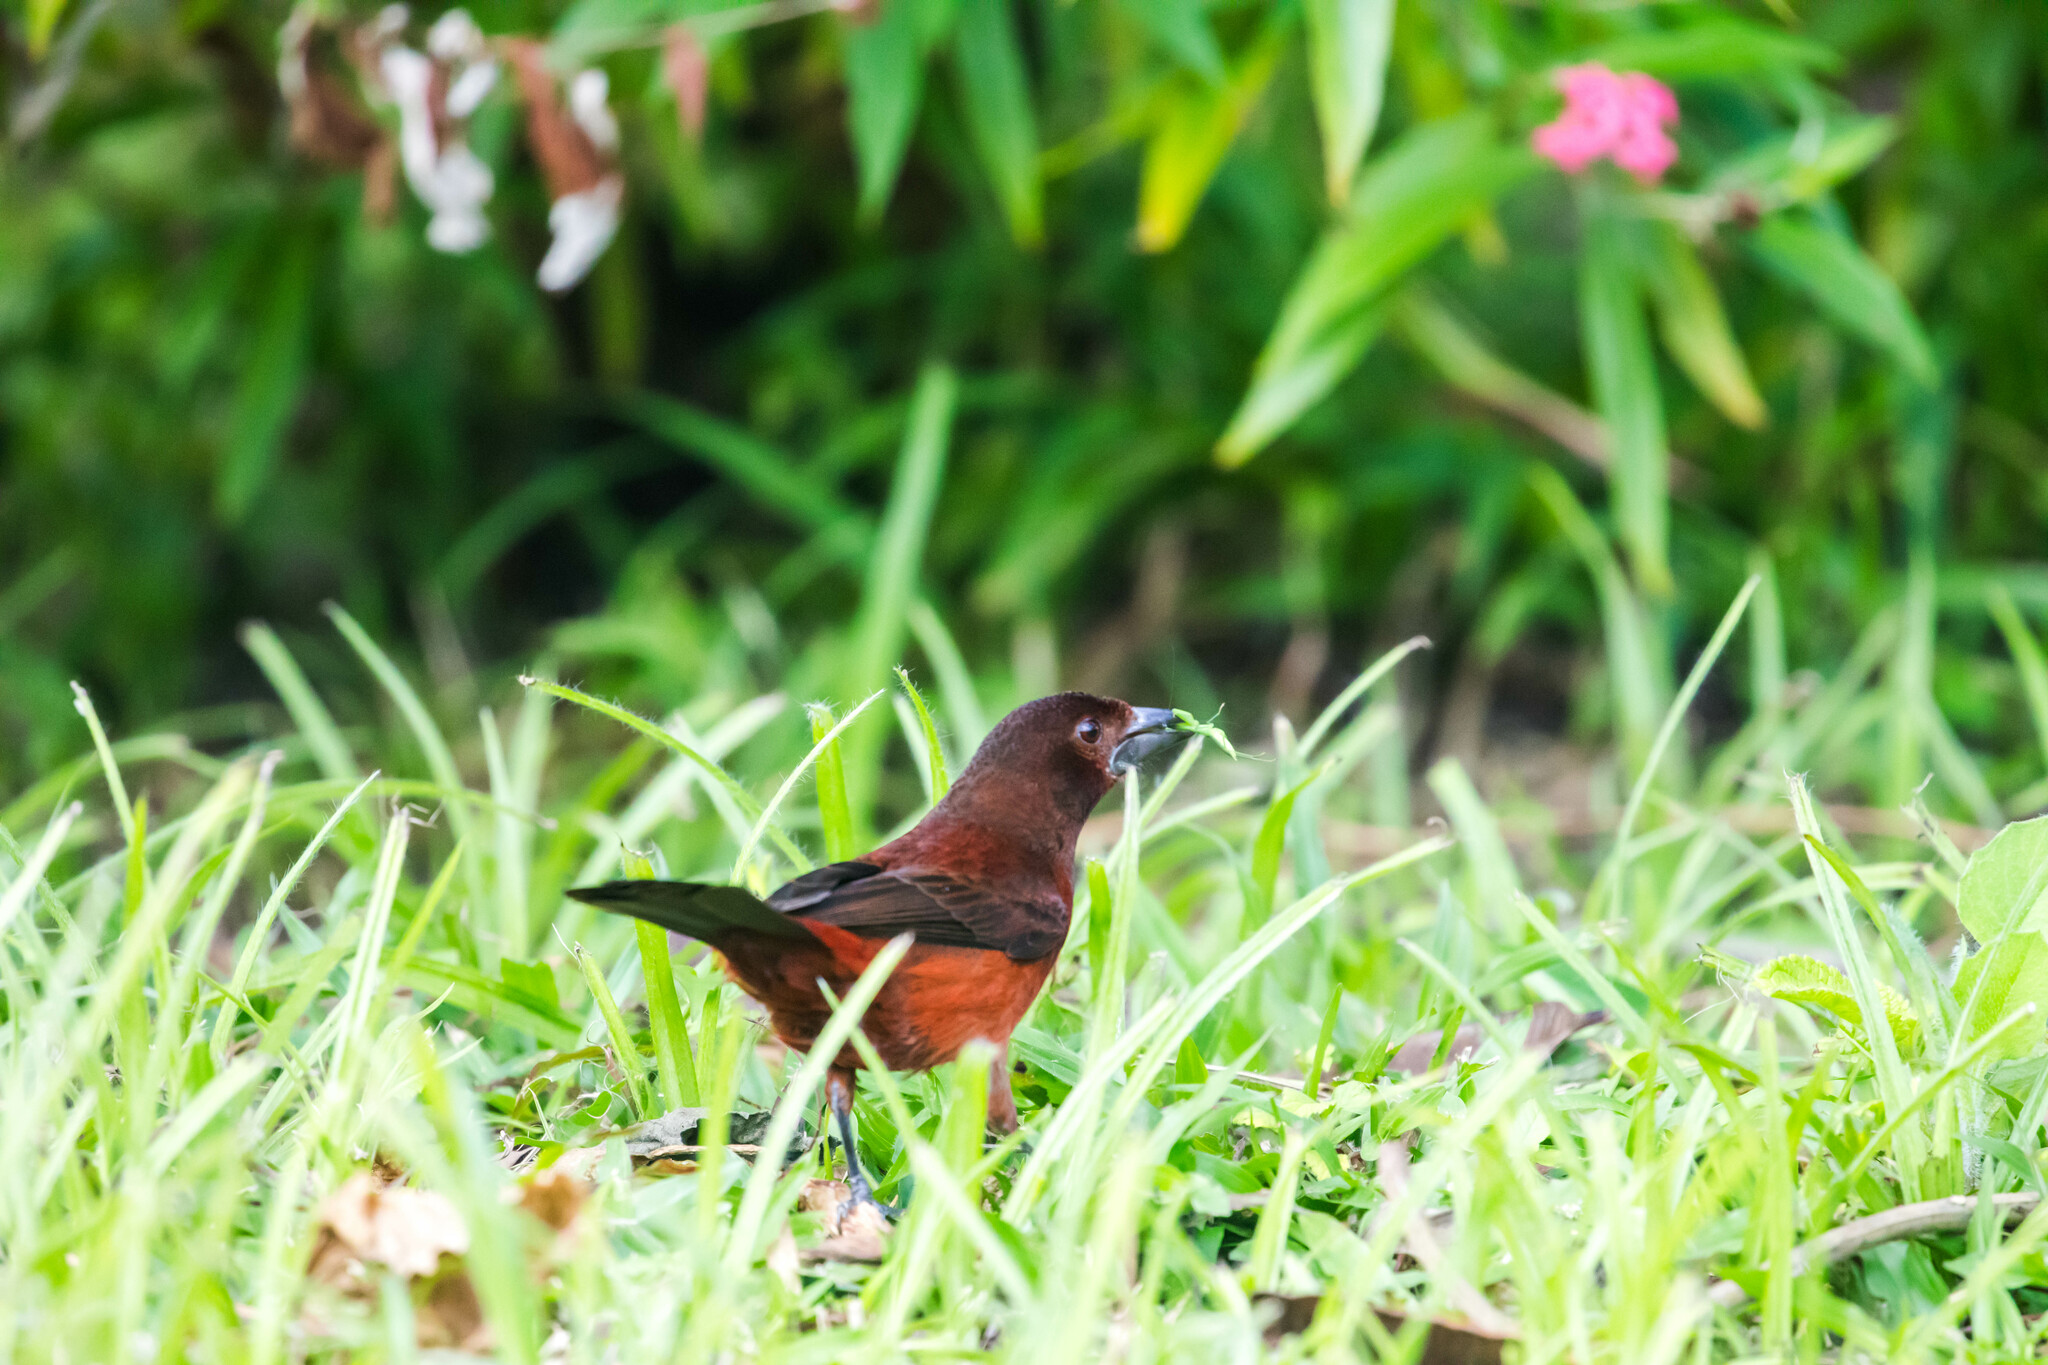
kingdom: Animalia
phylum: Chordata
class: Aves
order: Passeriformes
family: Thraupidae
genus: Ramphocelus
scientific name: Ramphocelus carbo
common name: Silver-beaked tanager
